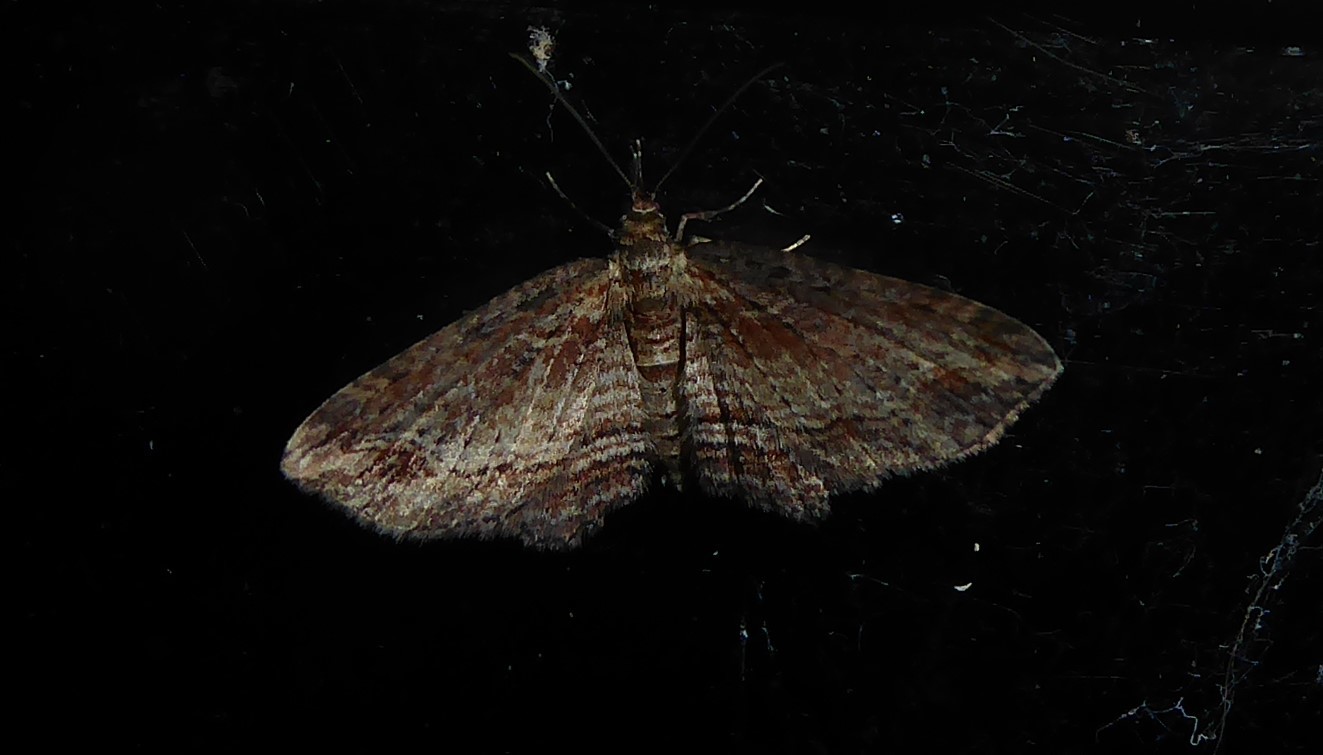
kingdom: Animalia
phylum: Arthropoda
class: Insecta
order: Lepidoptera
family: Geometridae
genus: Chloroclystis
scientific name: Chloroclystis filata
